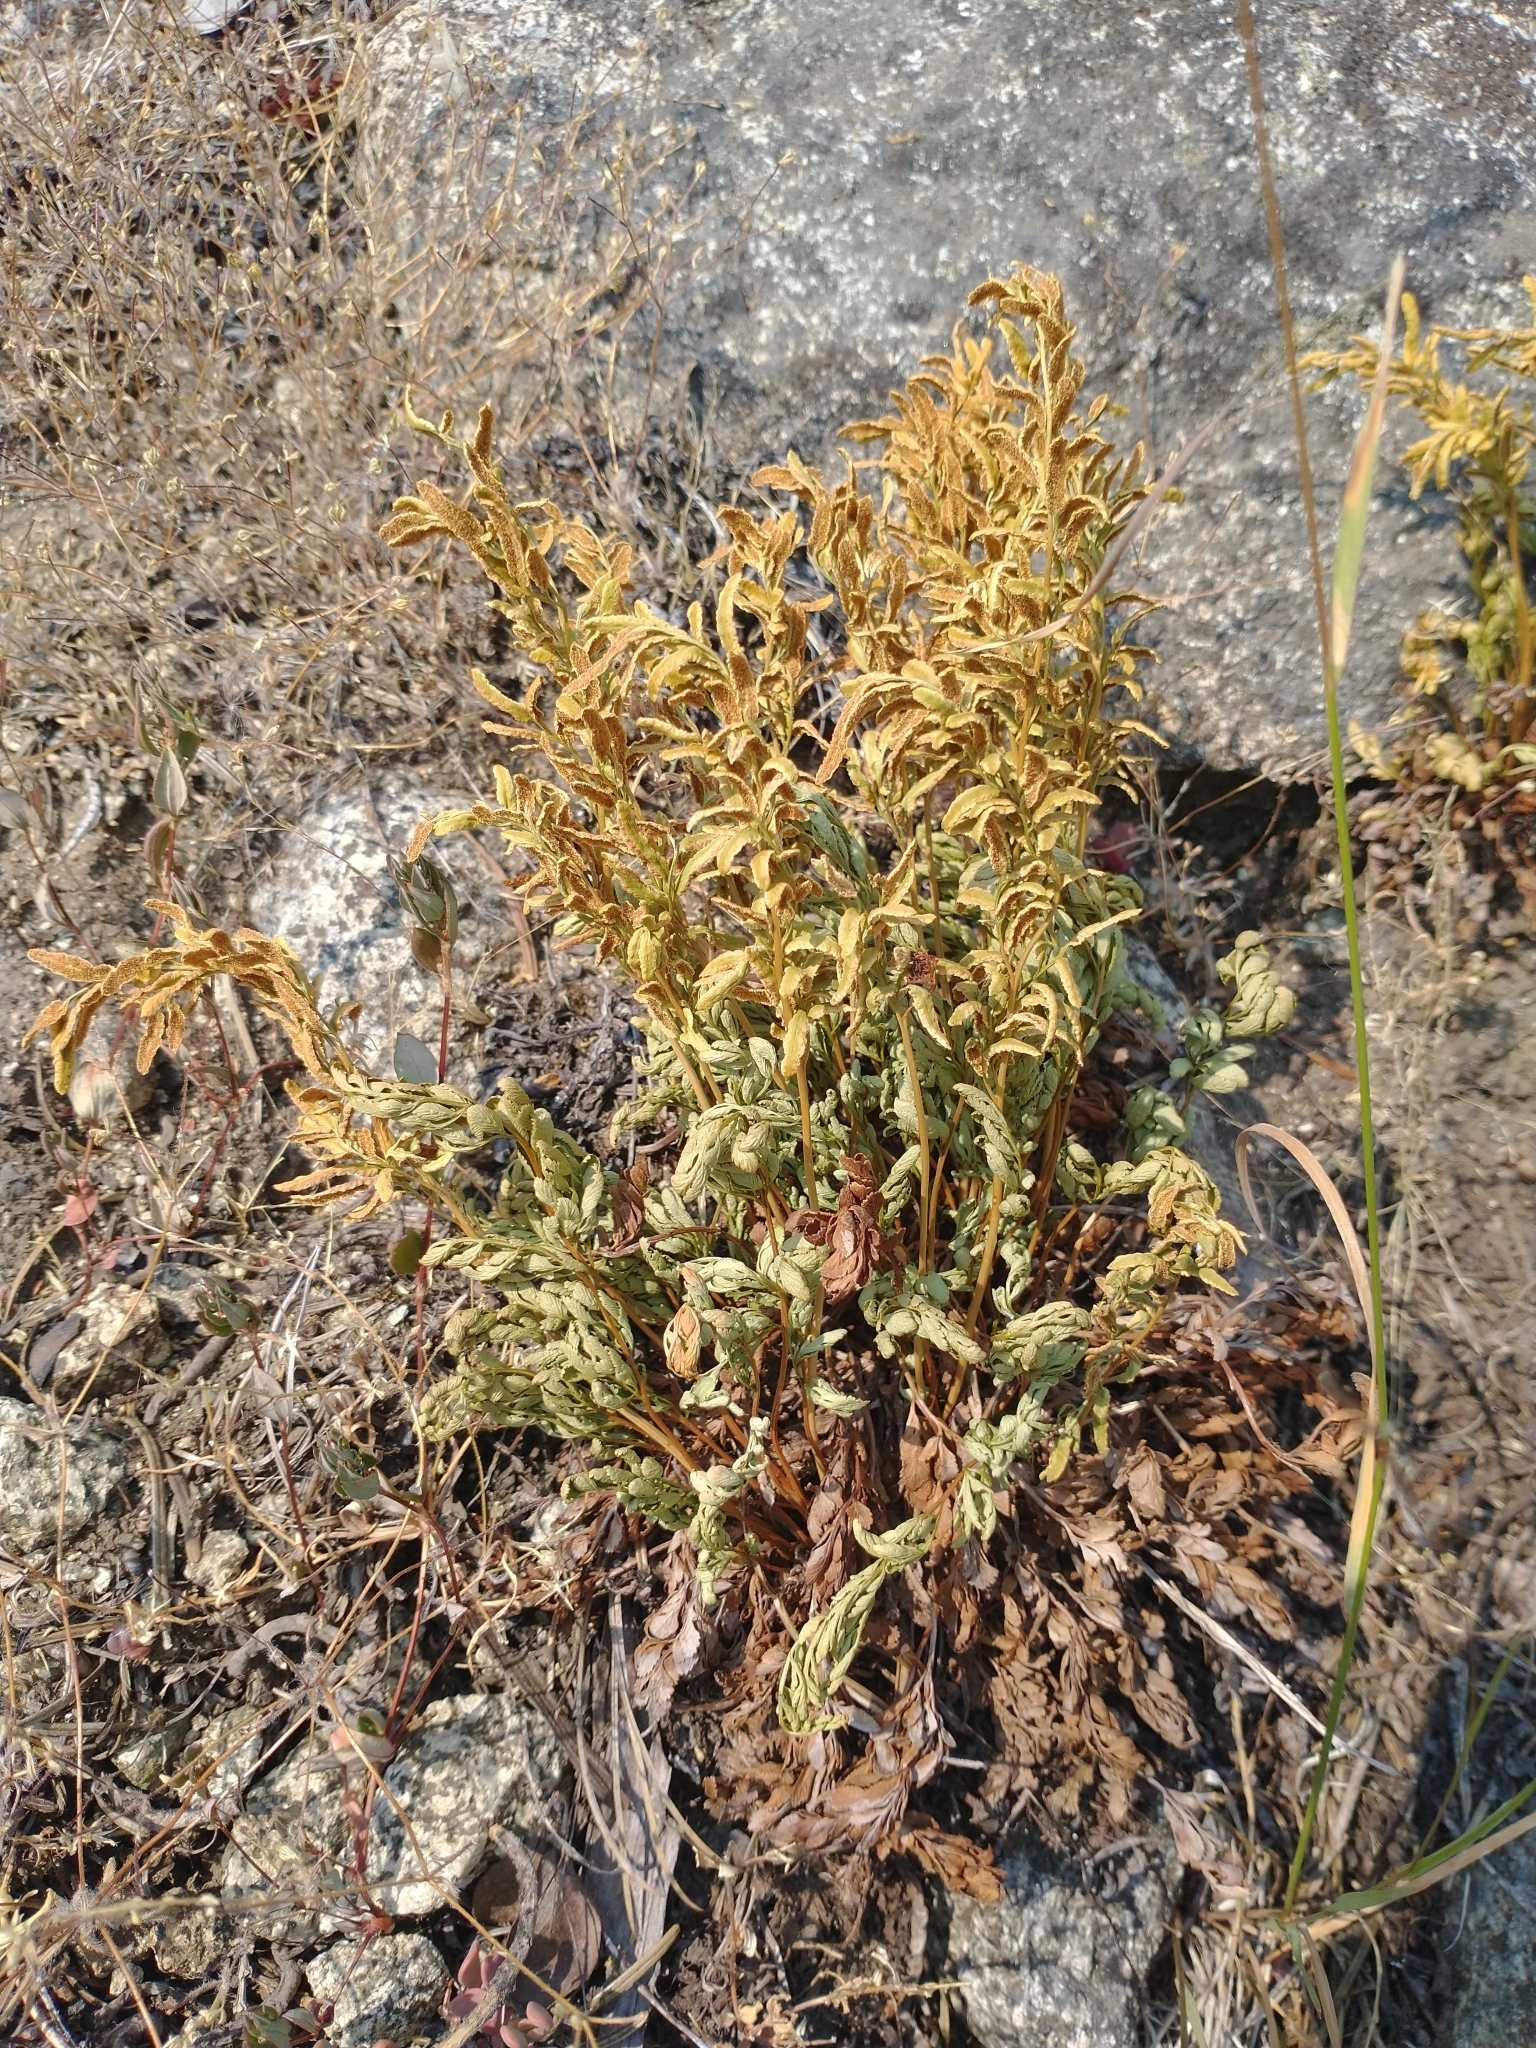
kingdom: Plantae
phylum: Tracheophyta
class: Polypodiopsida
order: Polypodiales
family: Pteridaceae
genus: Cryptogramma
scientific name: Cryptogramma acrostichoides
